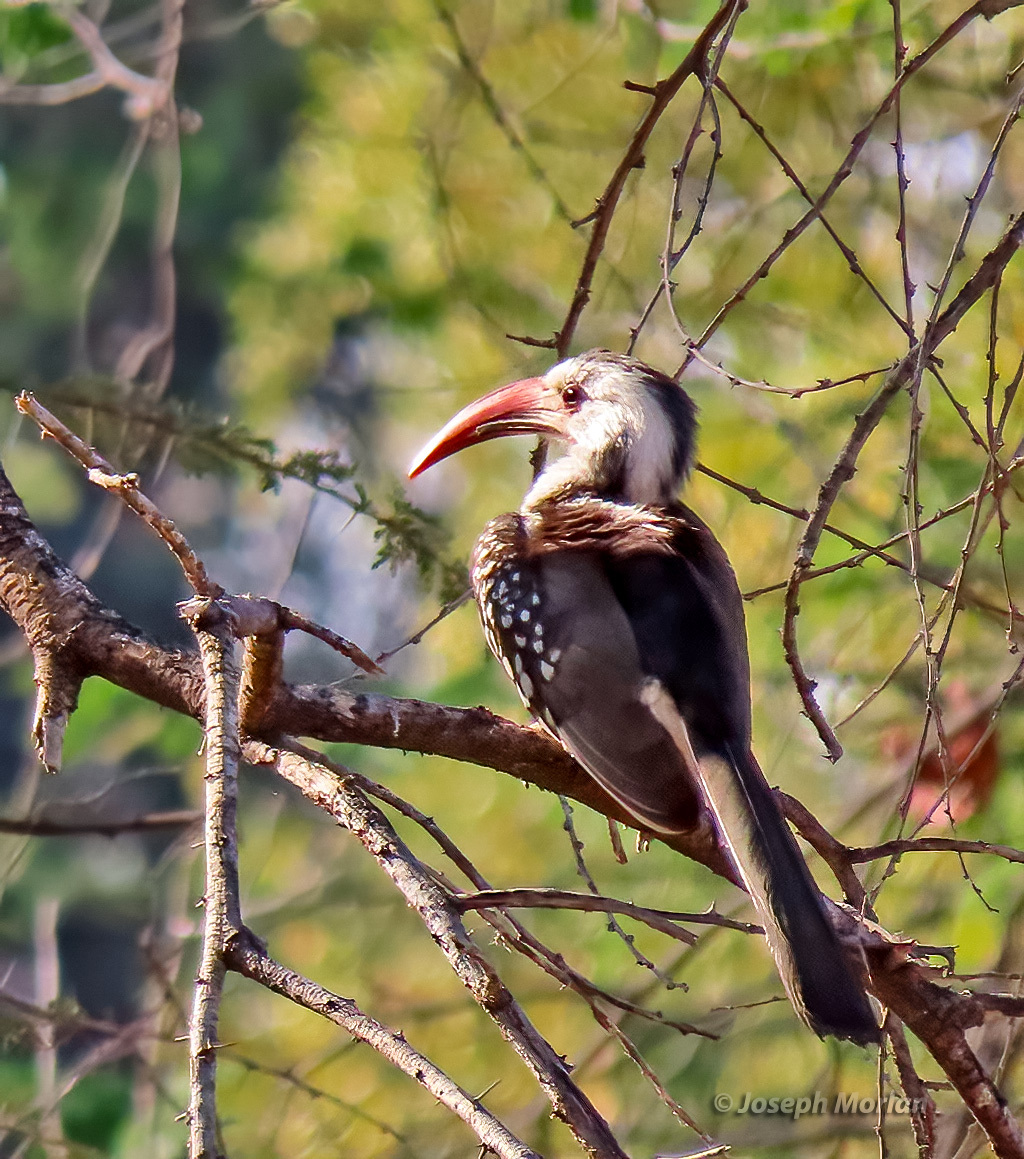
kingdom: Animalia
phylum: Chordata
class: Aves
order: Bucerotiformes
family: Bucerotidae
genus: Tockus
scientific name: Tockus damarensis
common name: Damara red-billed hornbill
